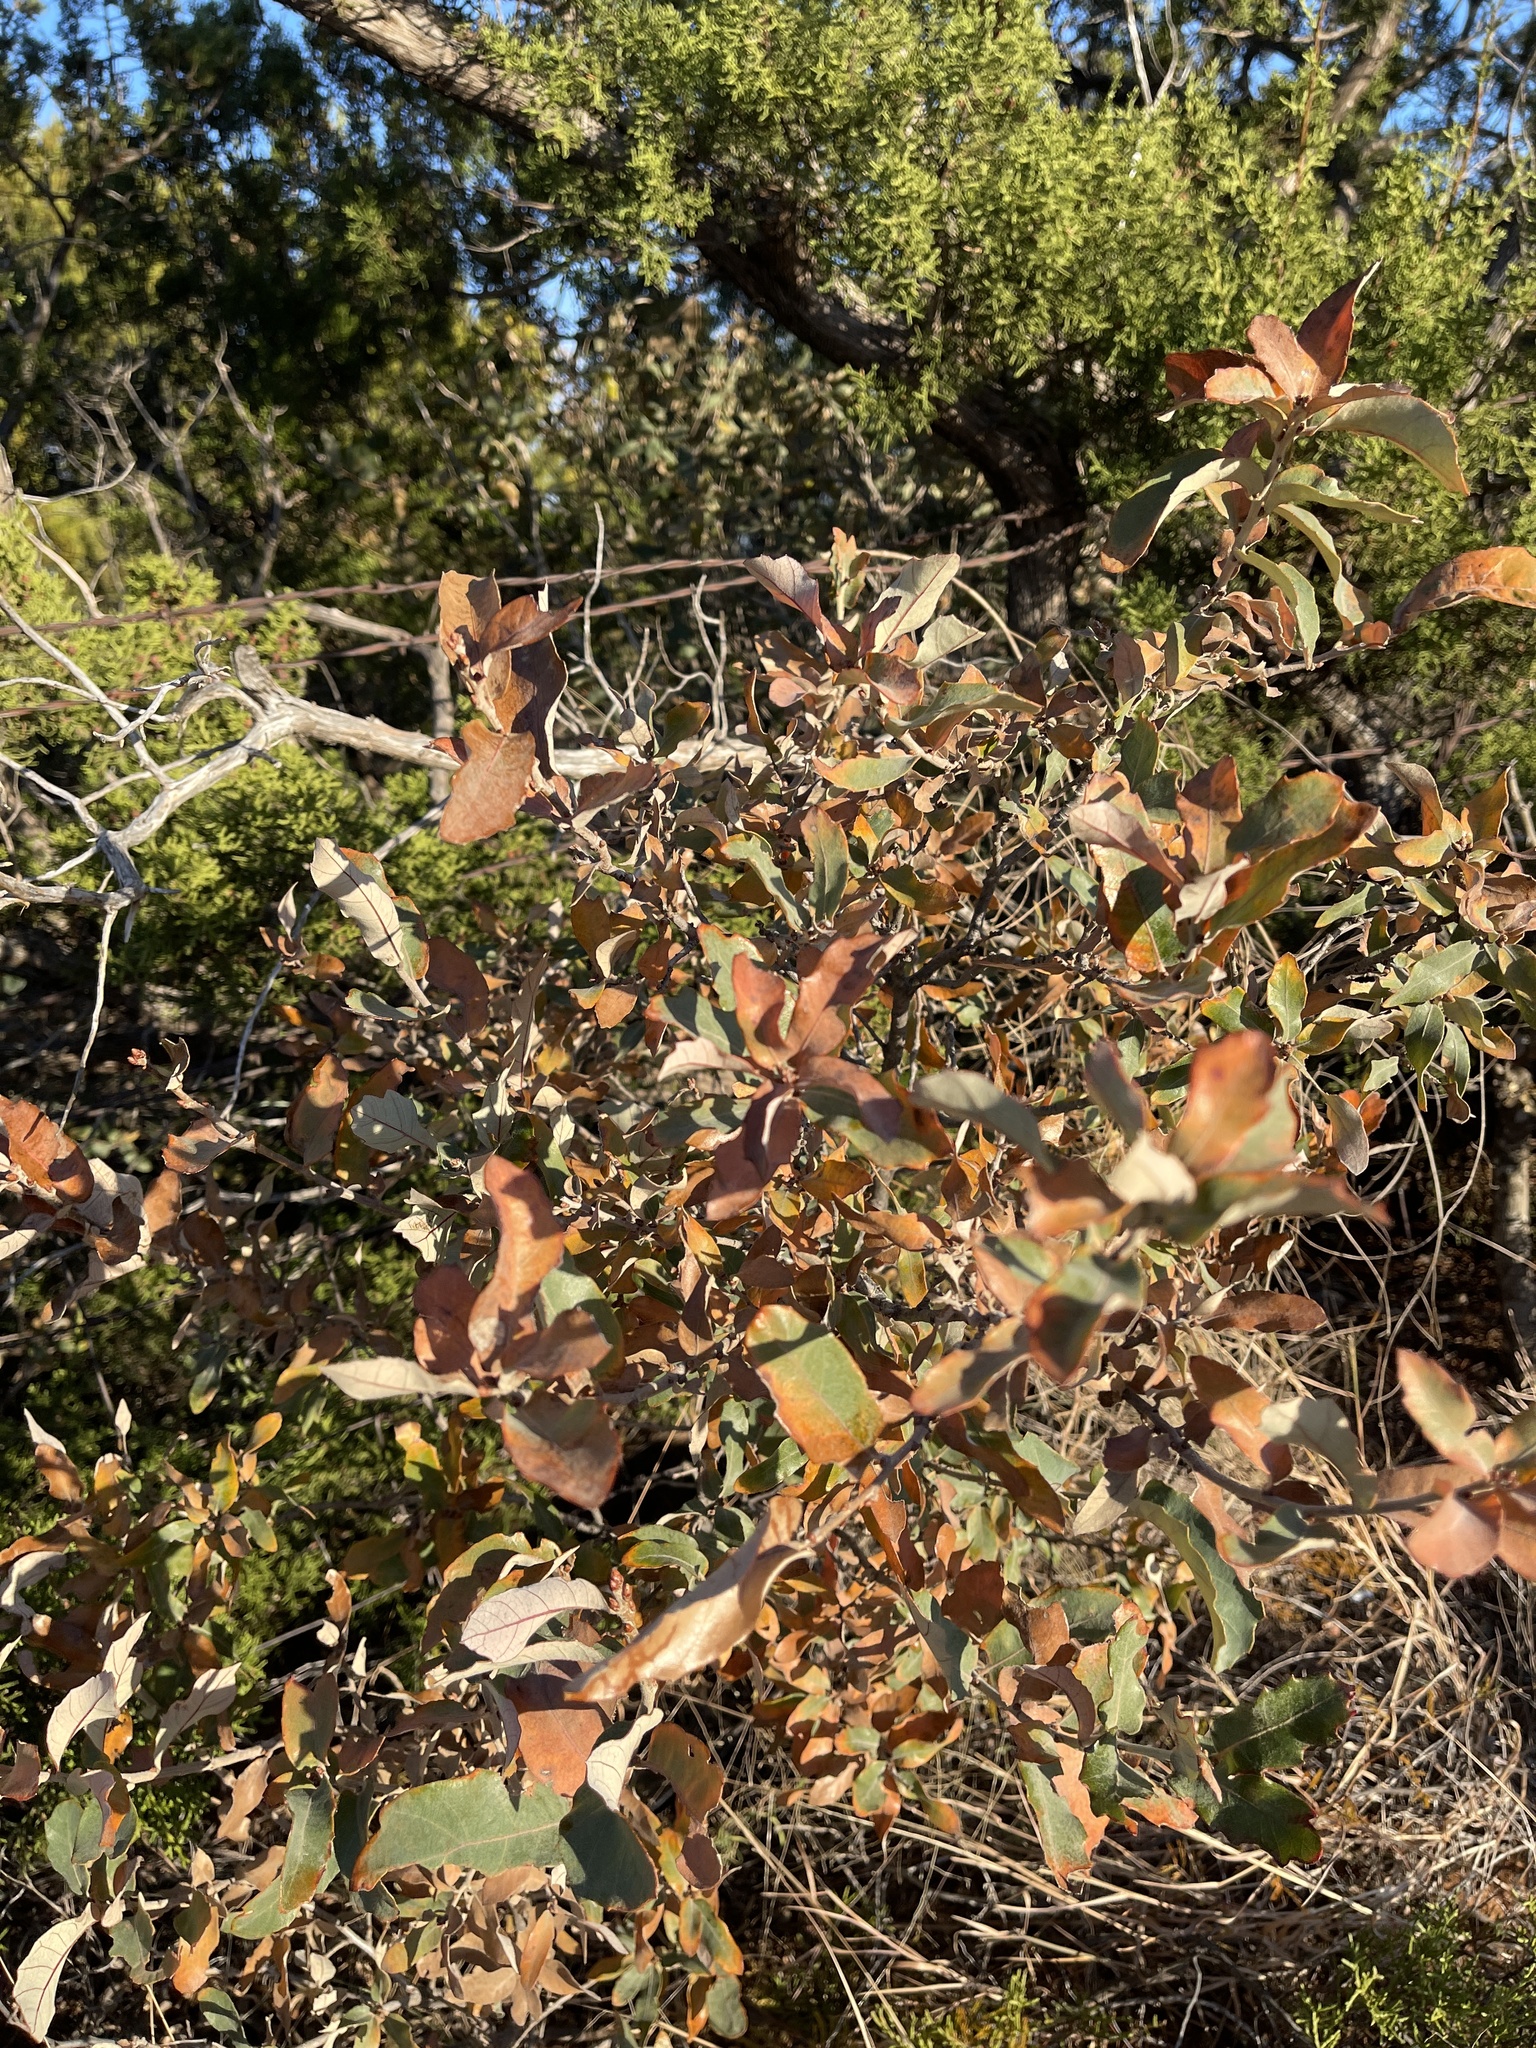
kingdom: Plantae
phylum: Tracheophyta
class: Magnoliopsida
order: Fagales
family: Fagaceae
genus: Quercus
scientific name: Quercus mohriana
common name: Mohr oak
